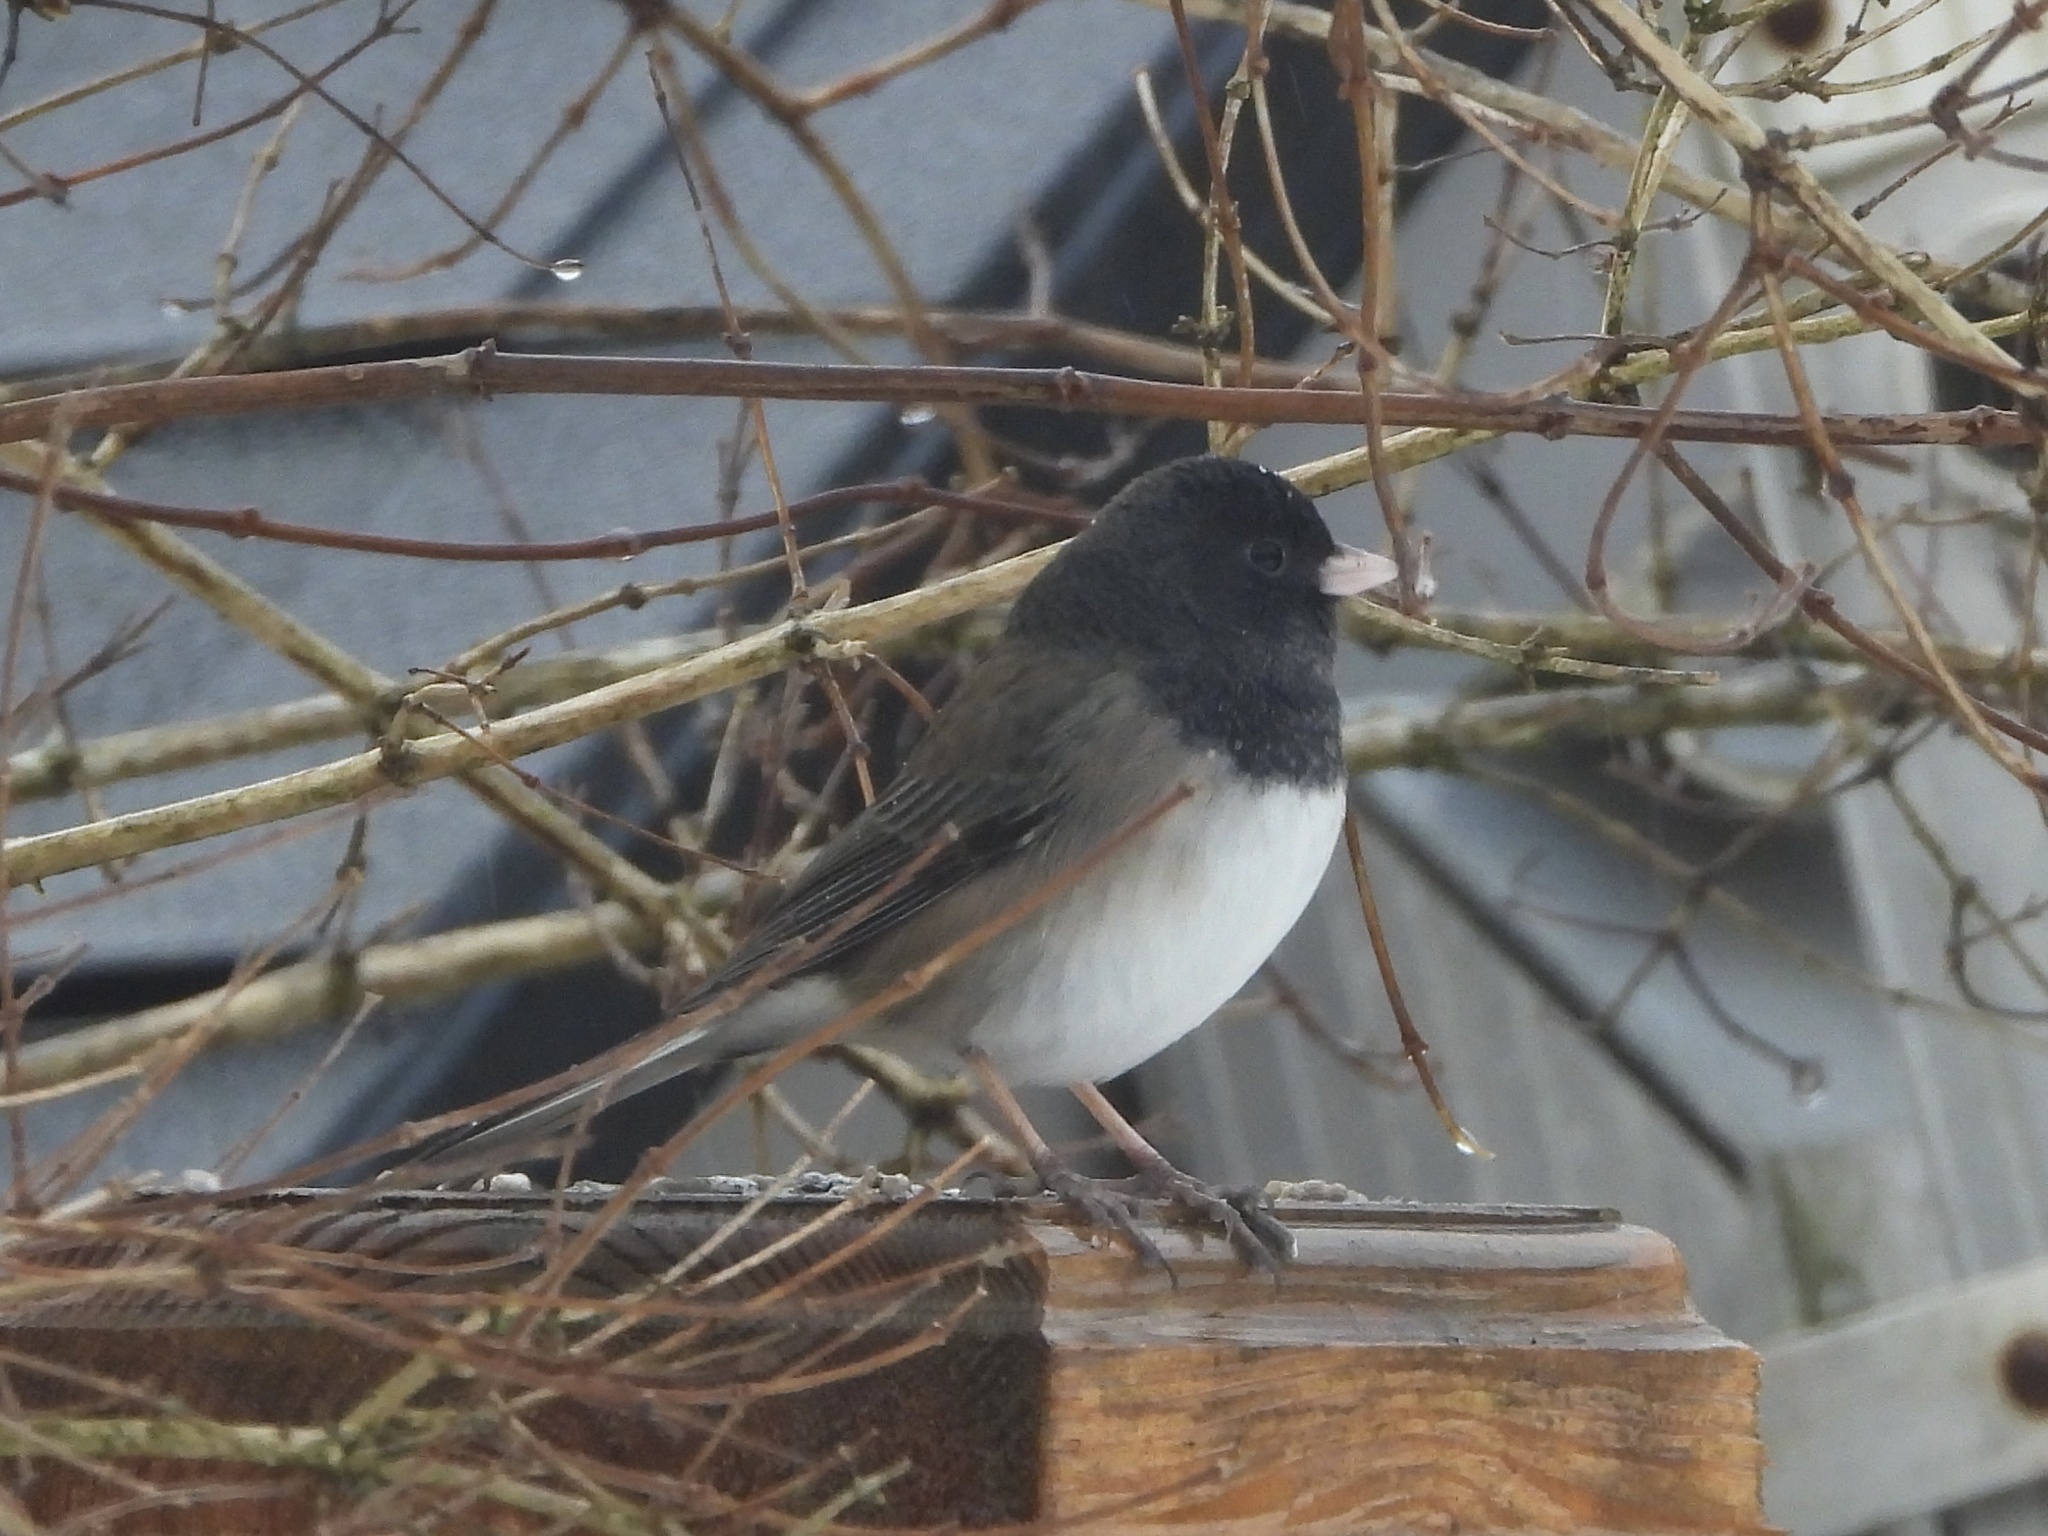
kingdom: Animalia
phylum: Chordata
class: Aves
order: Passeriformes
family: Passerellidae
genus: Junco
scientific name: Junco hyemalis
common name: Dark-eyed junco
